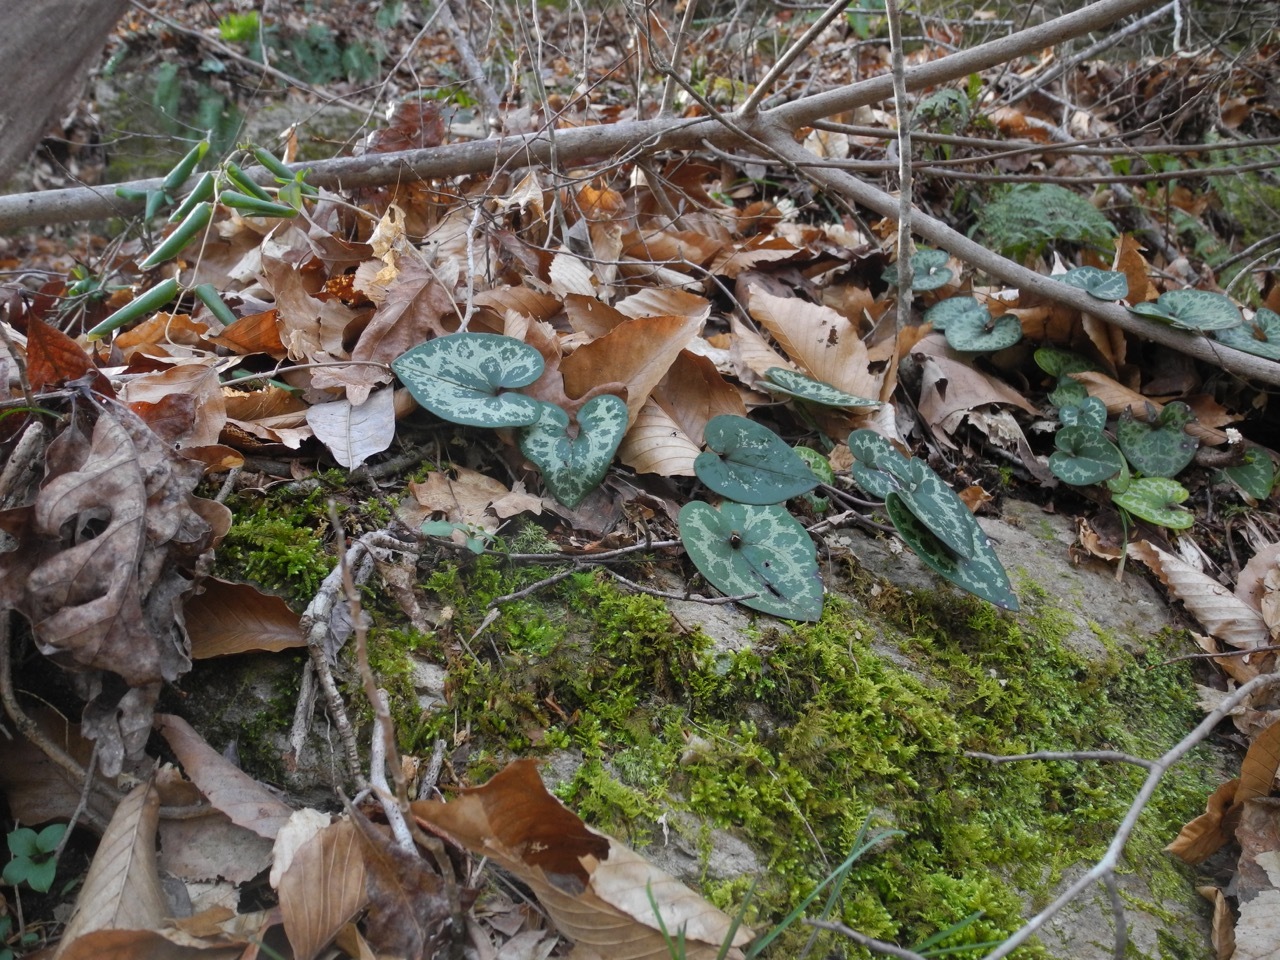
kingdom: Plantae
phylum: Tracheophyta
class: Magnoliopsida
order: Piperales
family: Aristolochiaceae
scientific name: Aristolochiaceae
